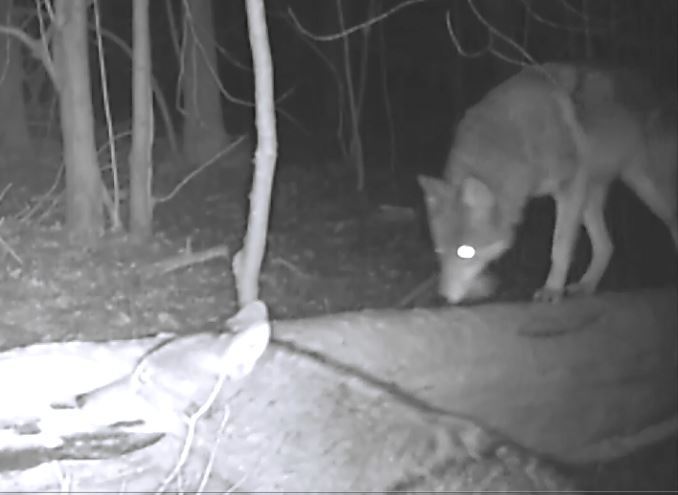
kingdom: Animalia
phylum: Chordata
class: Mammalia
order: Carnivora
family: Canidae
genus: Canis
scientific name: Canis latrans
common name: Coyote
